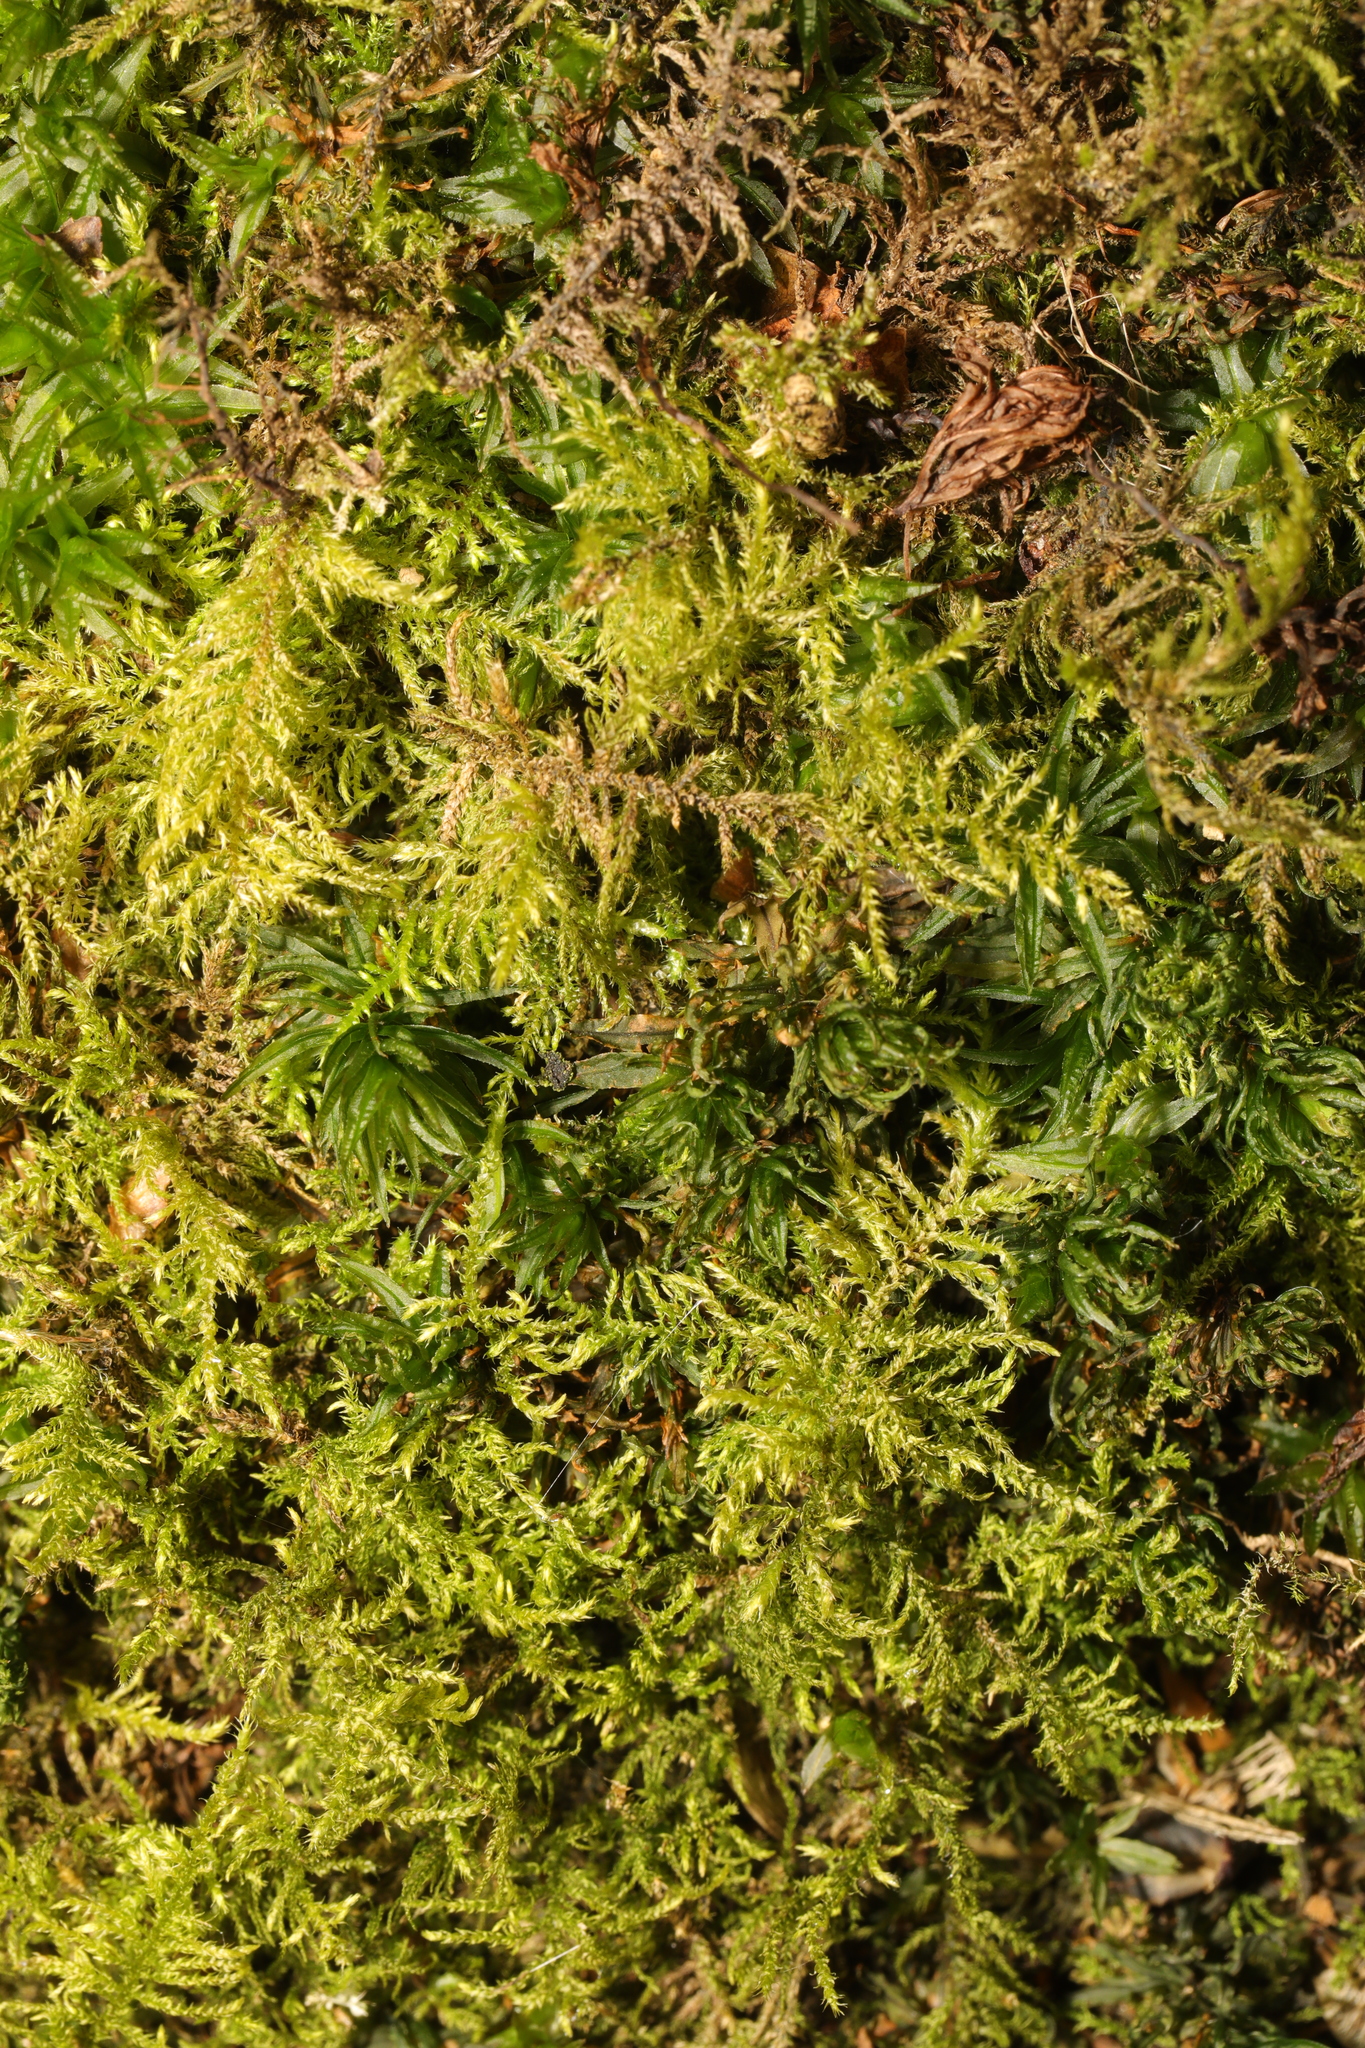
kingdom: Plantae
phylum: Bryophyta
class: Bryopsida
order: Hypnales
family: Brachytheciaceae
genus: Kindbergia
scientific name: Kindbergia praelonga
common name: Slender beaked moss
